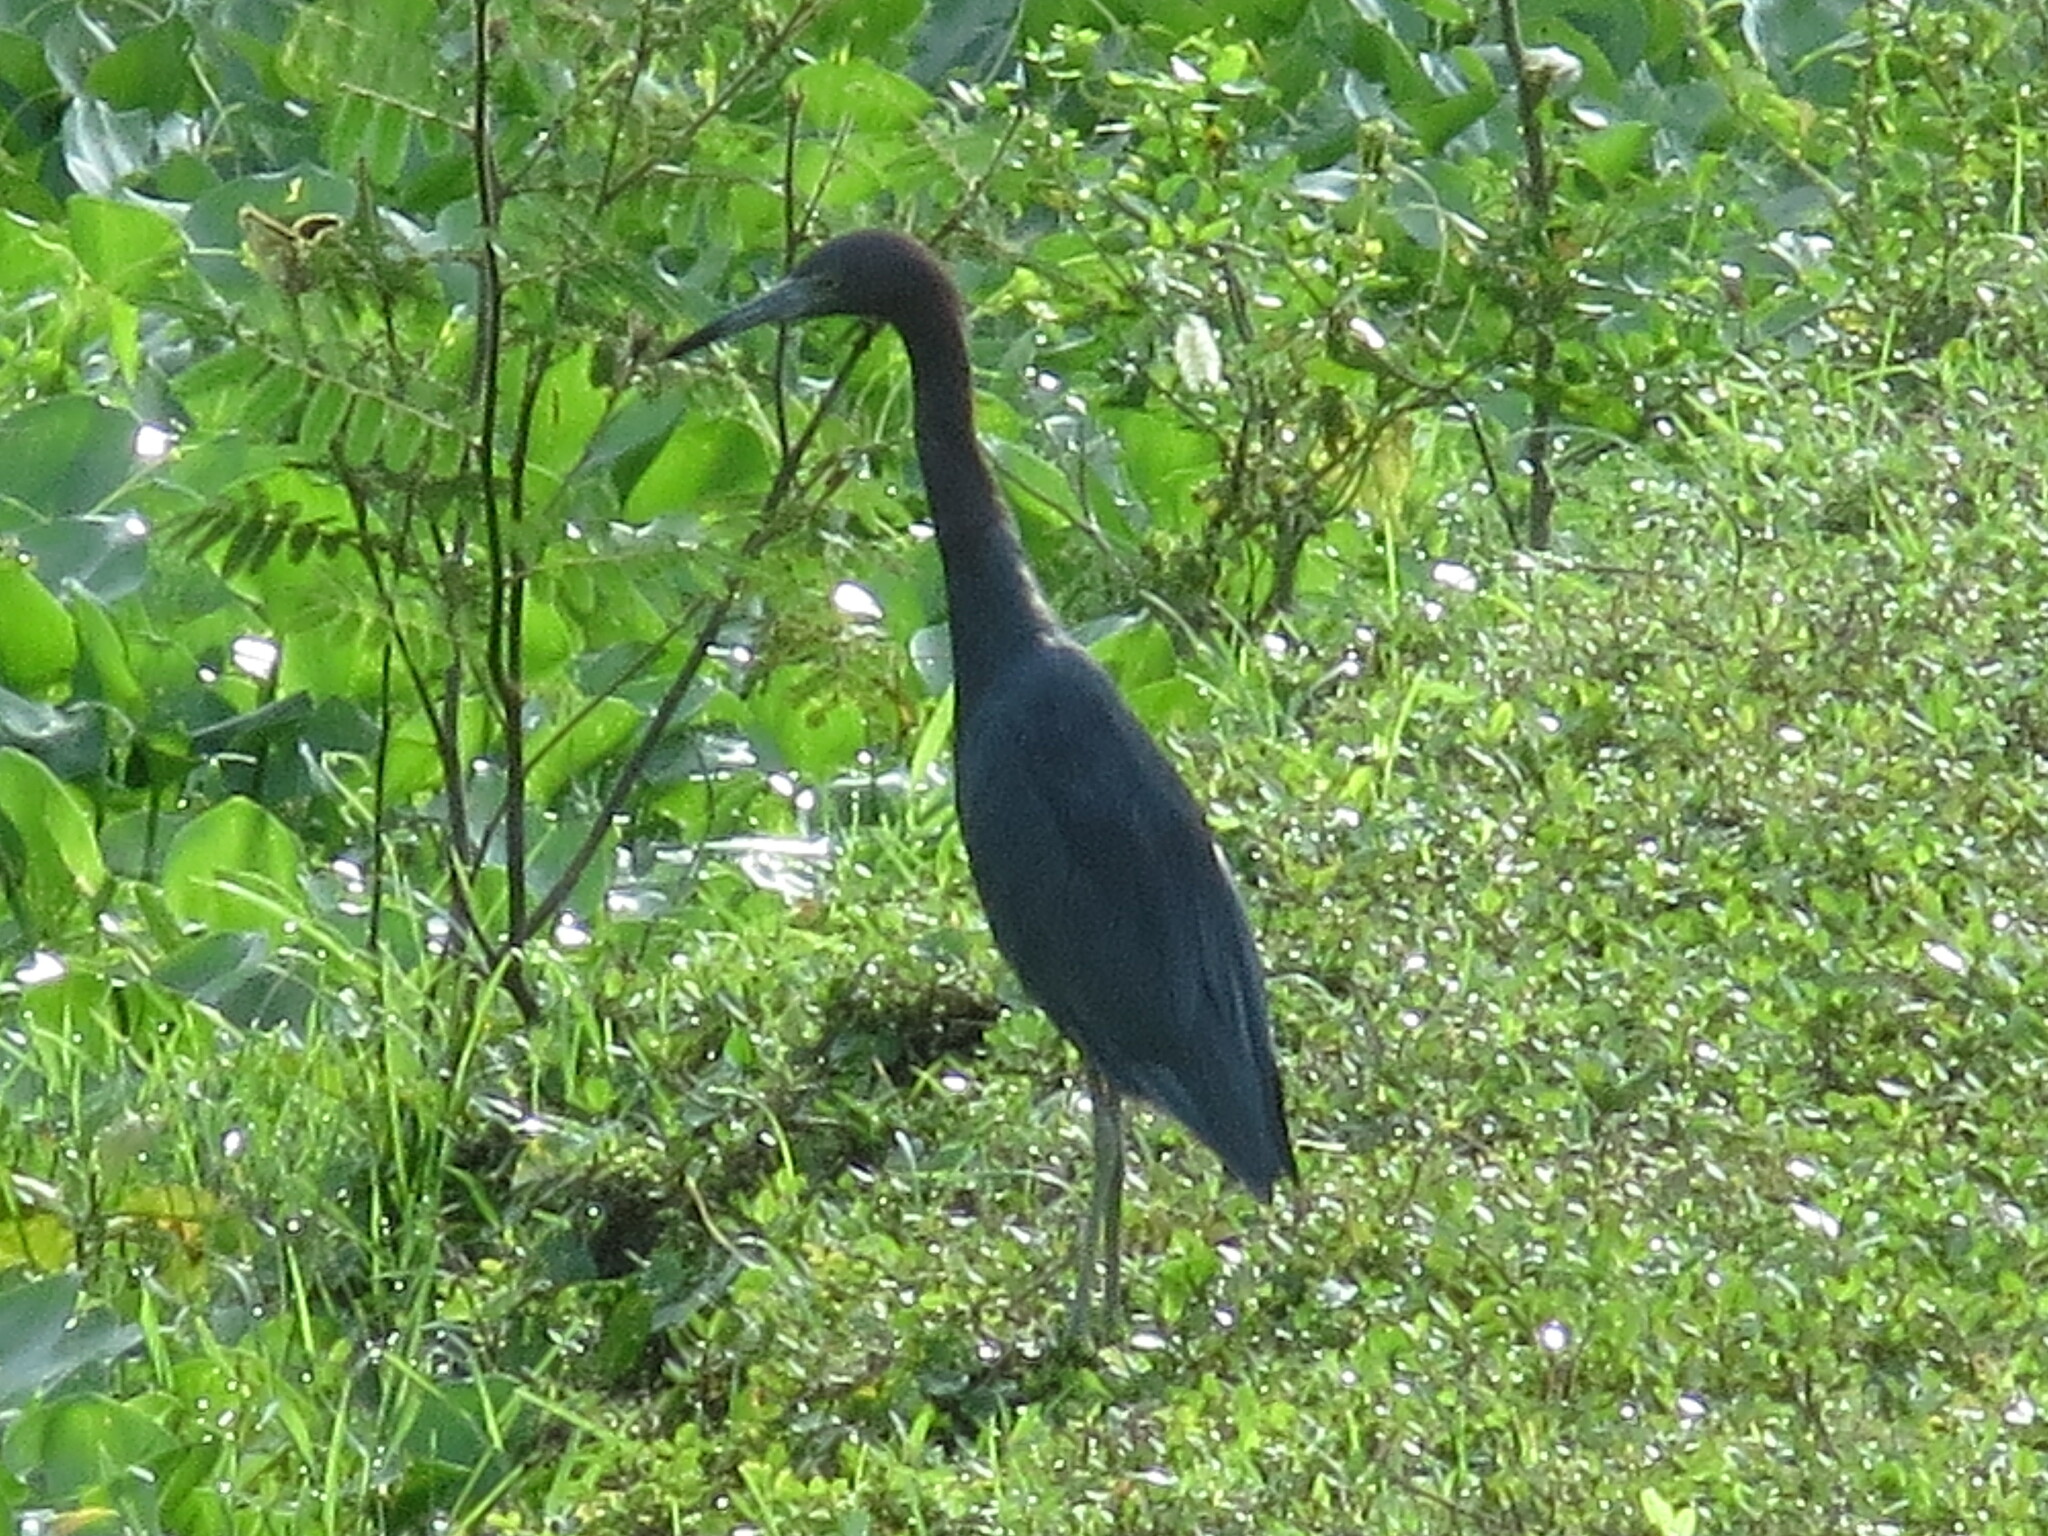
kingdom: Animalia
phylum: Chordata
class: Aves
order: Pelecaniformes
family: Ardeidae
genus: Egretta
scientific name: Egretta caerulea
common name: Little blue heron
